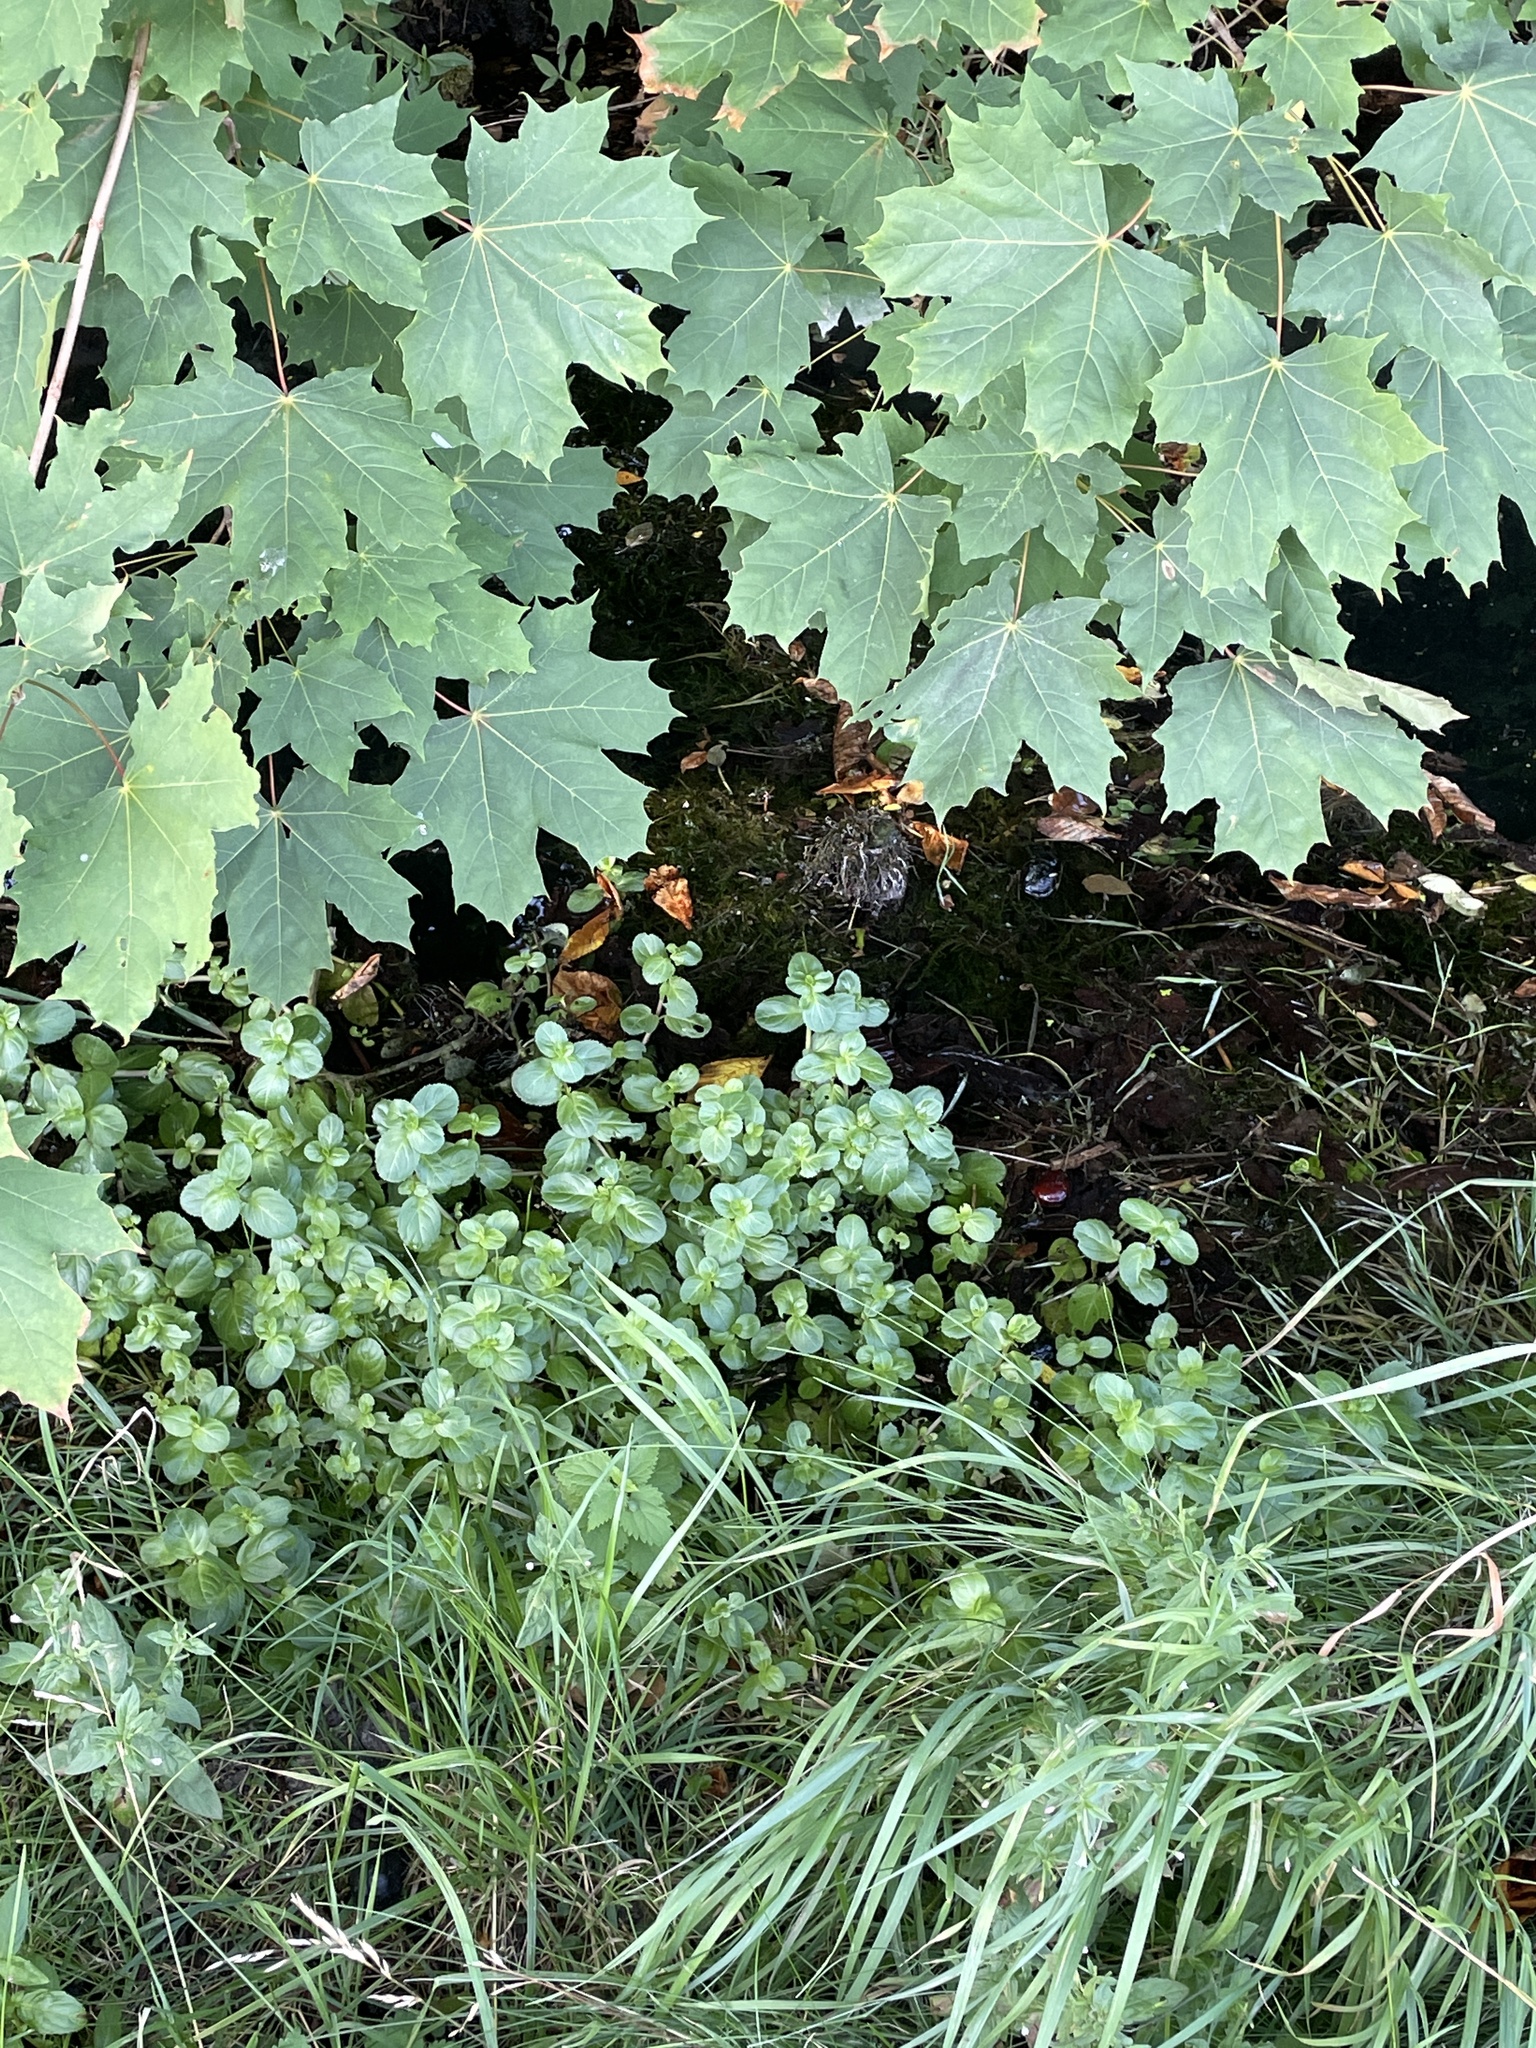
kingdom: Plantae
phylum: Tracheophyta
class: Magnoliopsida
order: Lamiales
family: Plantaginaceae
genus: Veronica
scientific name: Veronica beccabunga
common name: Brooklime
